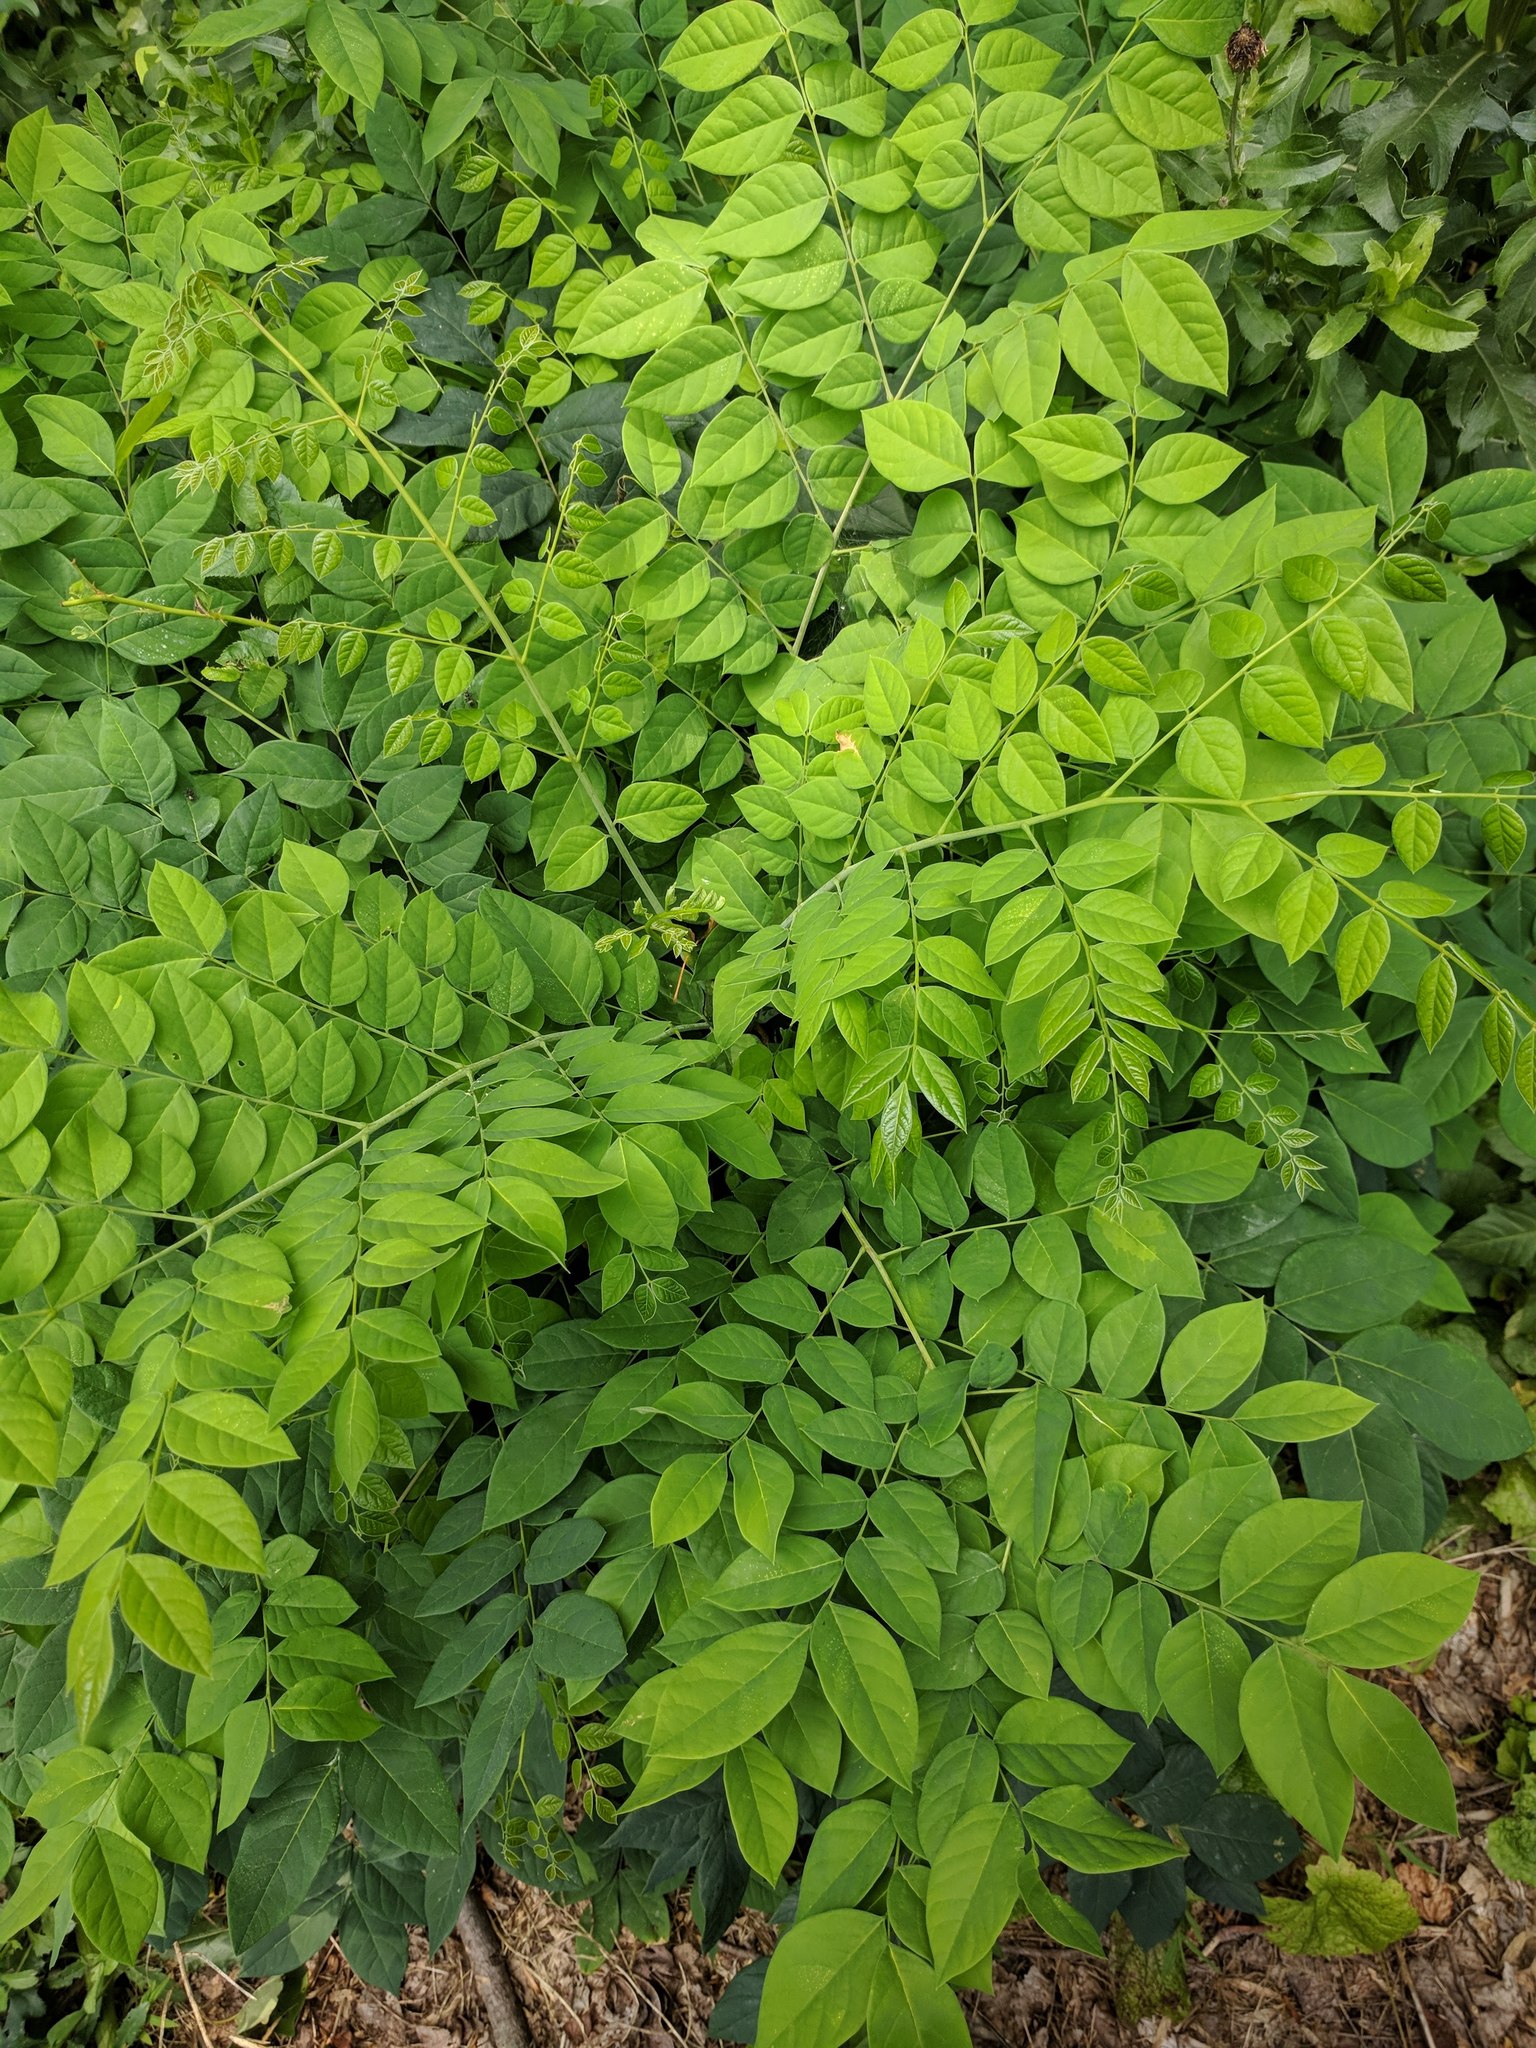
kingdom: Plantae
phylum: Tracheophyta
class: Magnoliopsida
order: Fabales
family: Fabaceae
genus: Gymnocladus
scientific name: Gymnocladus dioicus
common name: Kentucky coffee-tree
